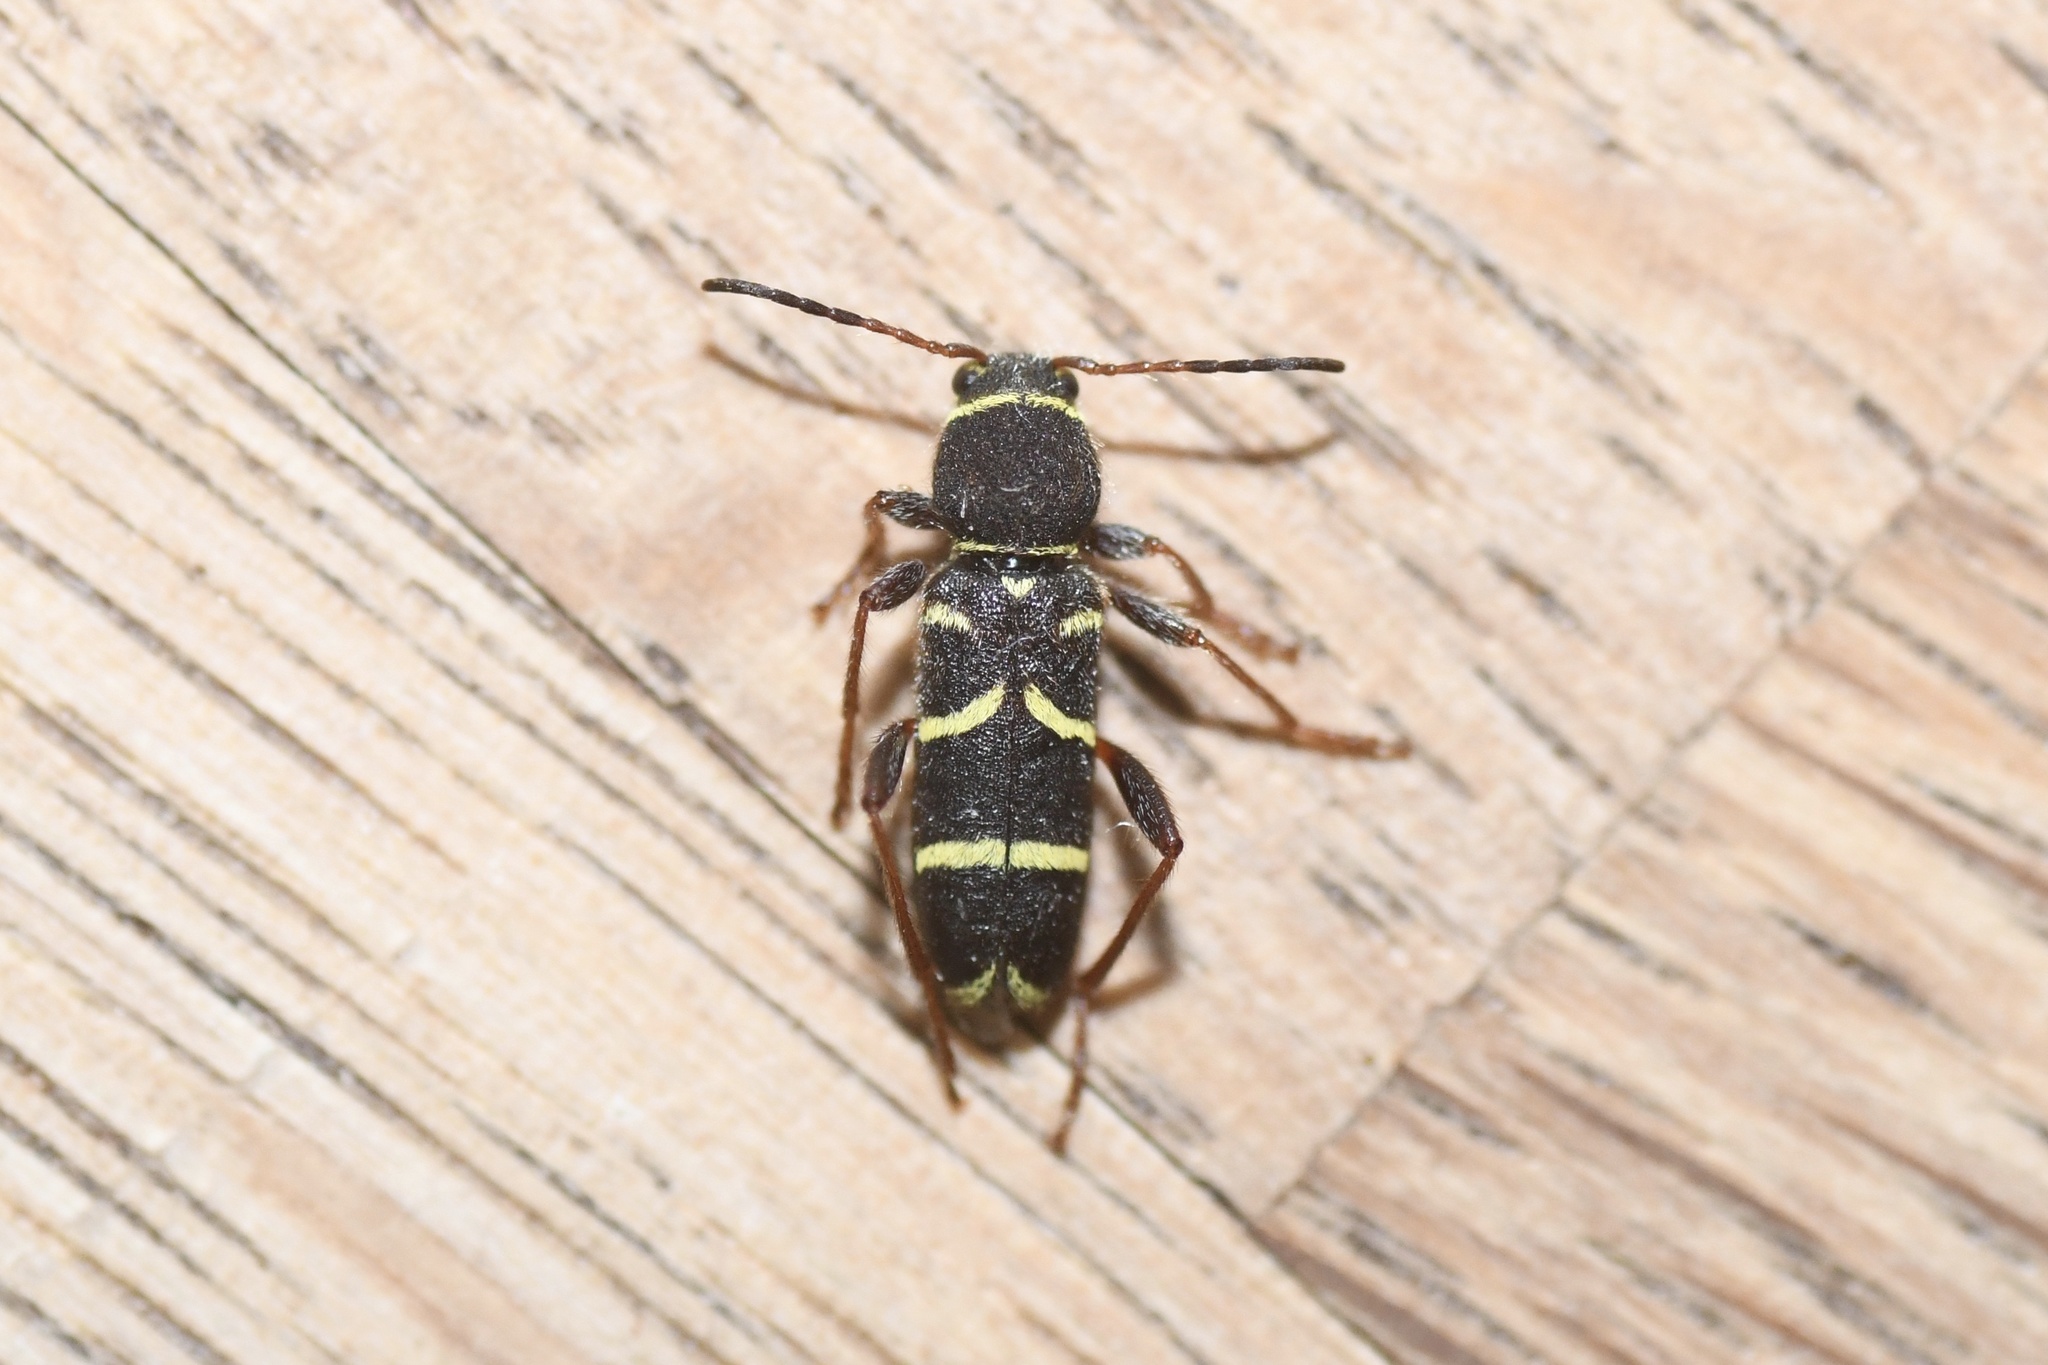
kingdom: Animalia
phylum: Arthropoda
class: Insecta
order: Coleoptera
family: Cerambycidae
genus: Clytus
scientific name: Clytus marginicollis
